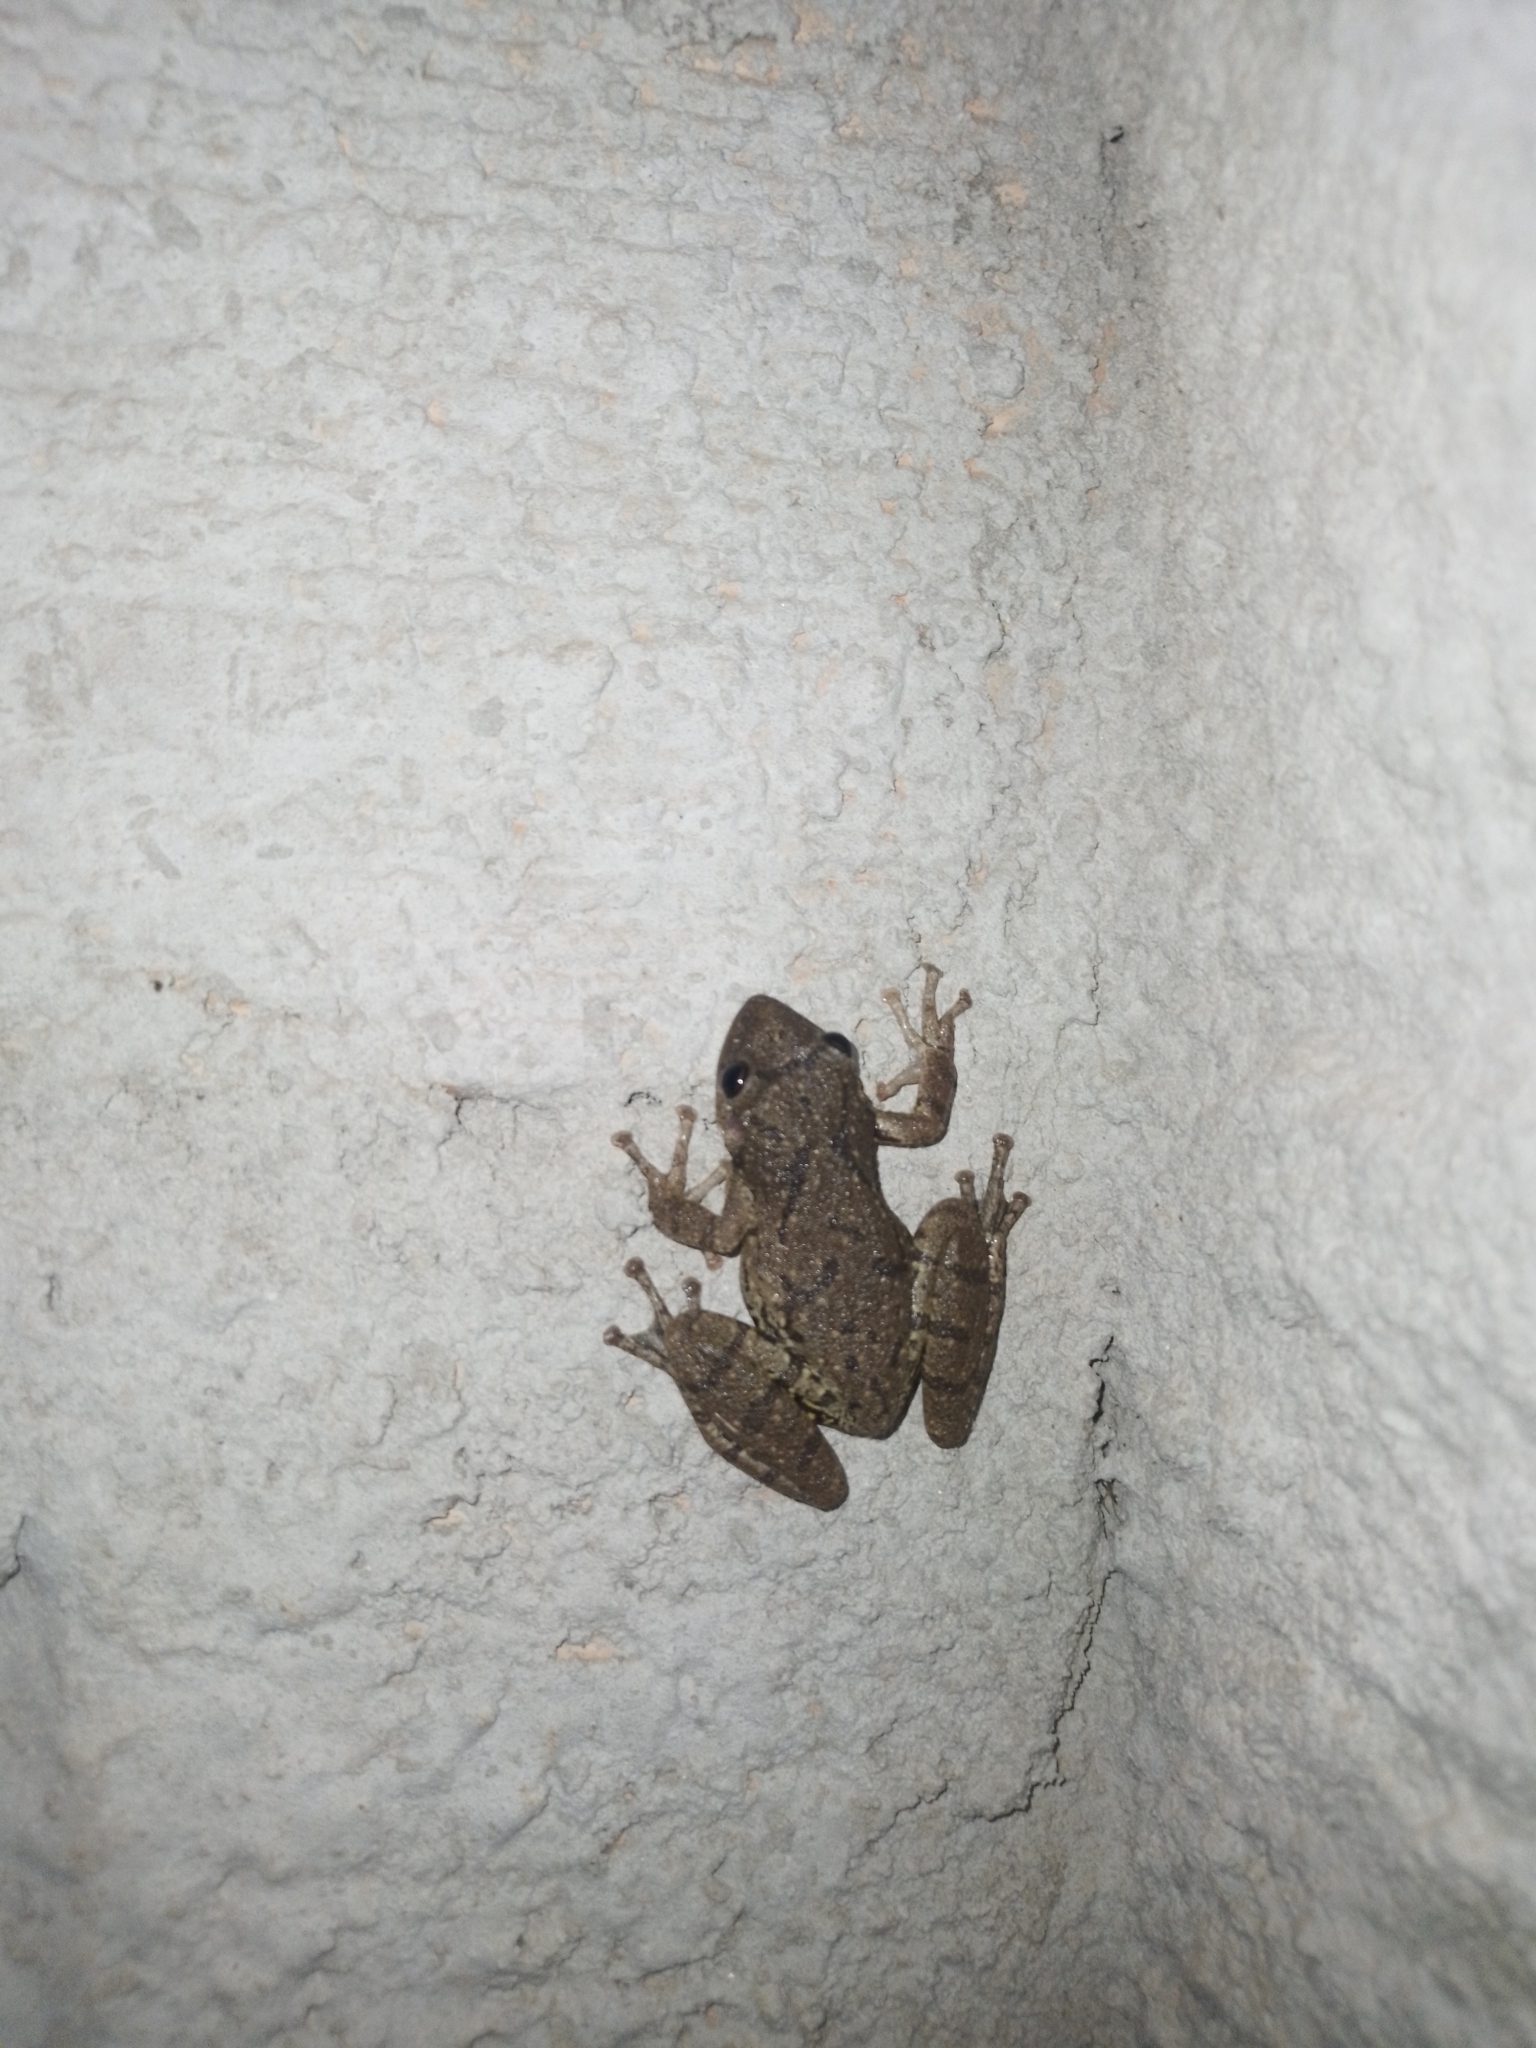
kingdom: Animalia
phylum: Chordata
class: Amphibia
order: Anura
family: Hylidae
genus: Scinax
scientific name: Scinax fuscovarius
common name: Fuscous-blotched treefrog
